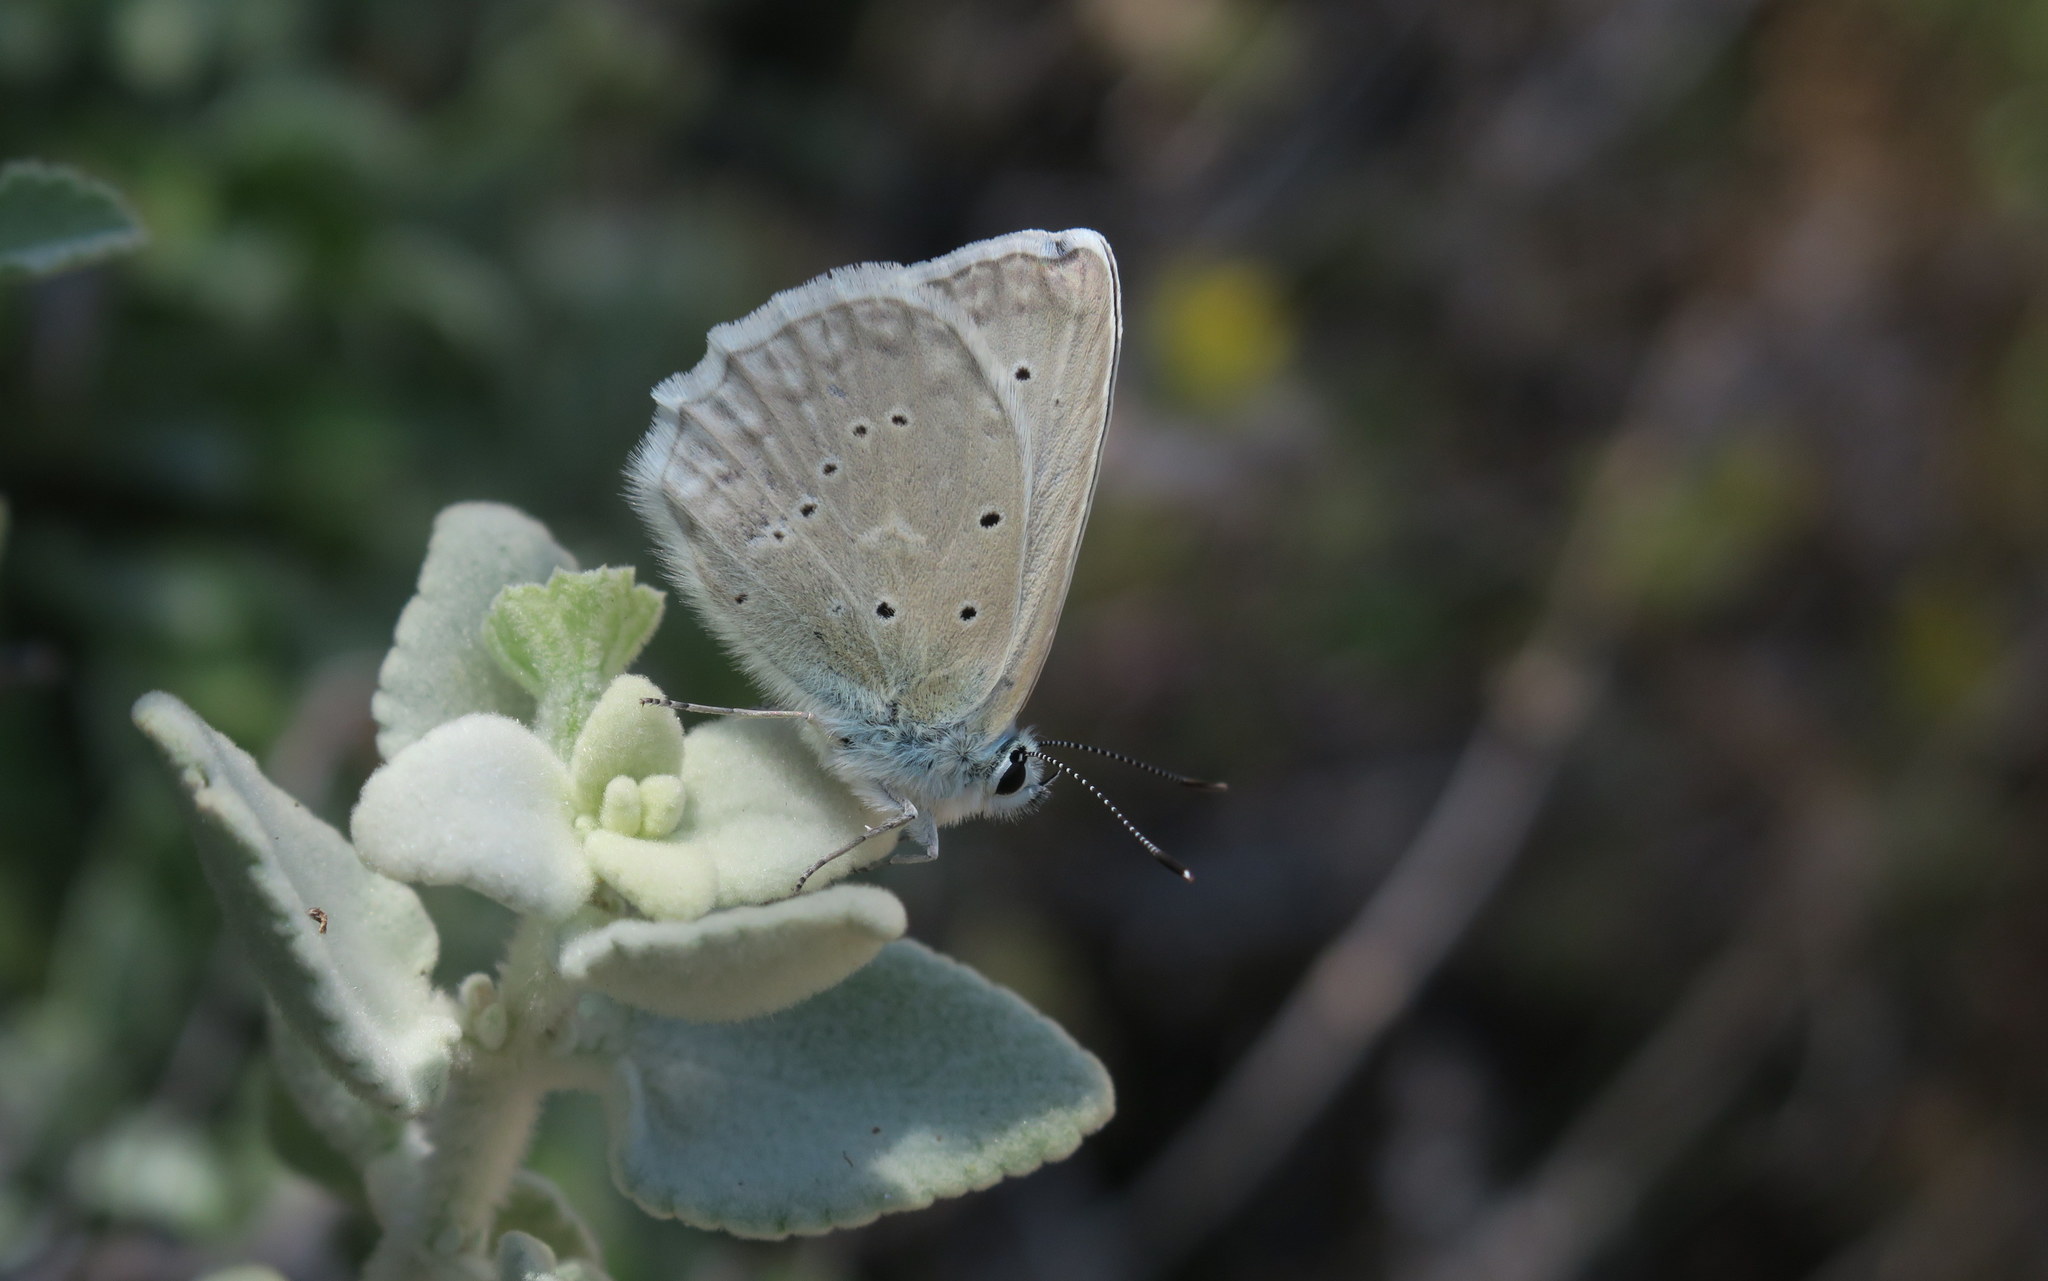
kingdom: Animalia
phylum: Arthropoda
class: Insecta
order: Lepidoptera
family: Lycaenidae
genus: Polyommatus
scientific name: Polyommatus daphnis
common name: Meleager's blue
